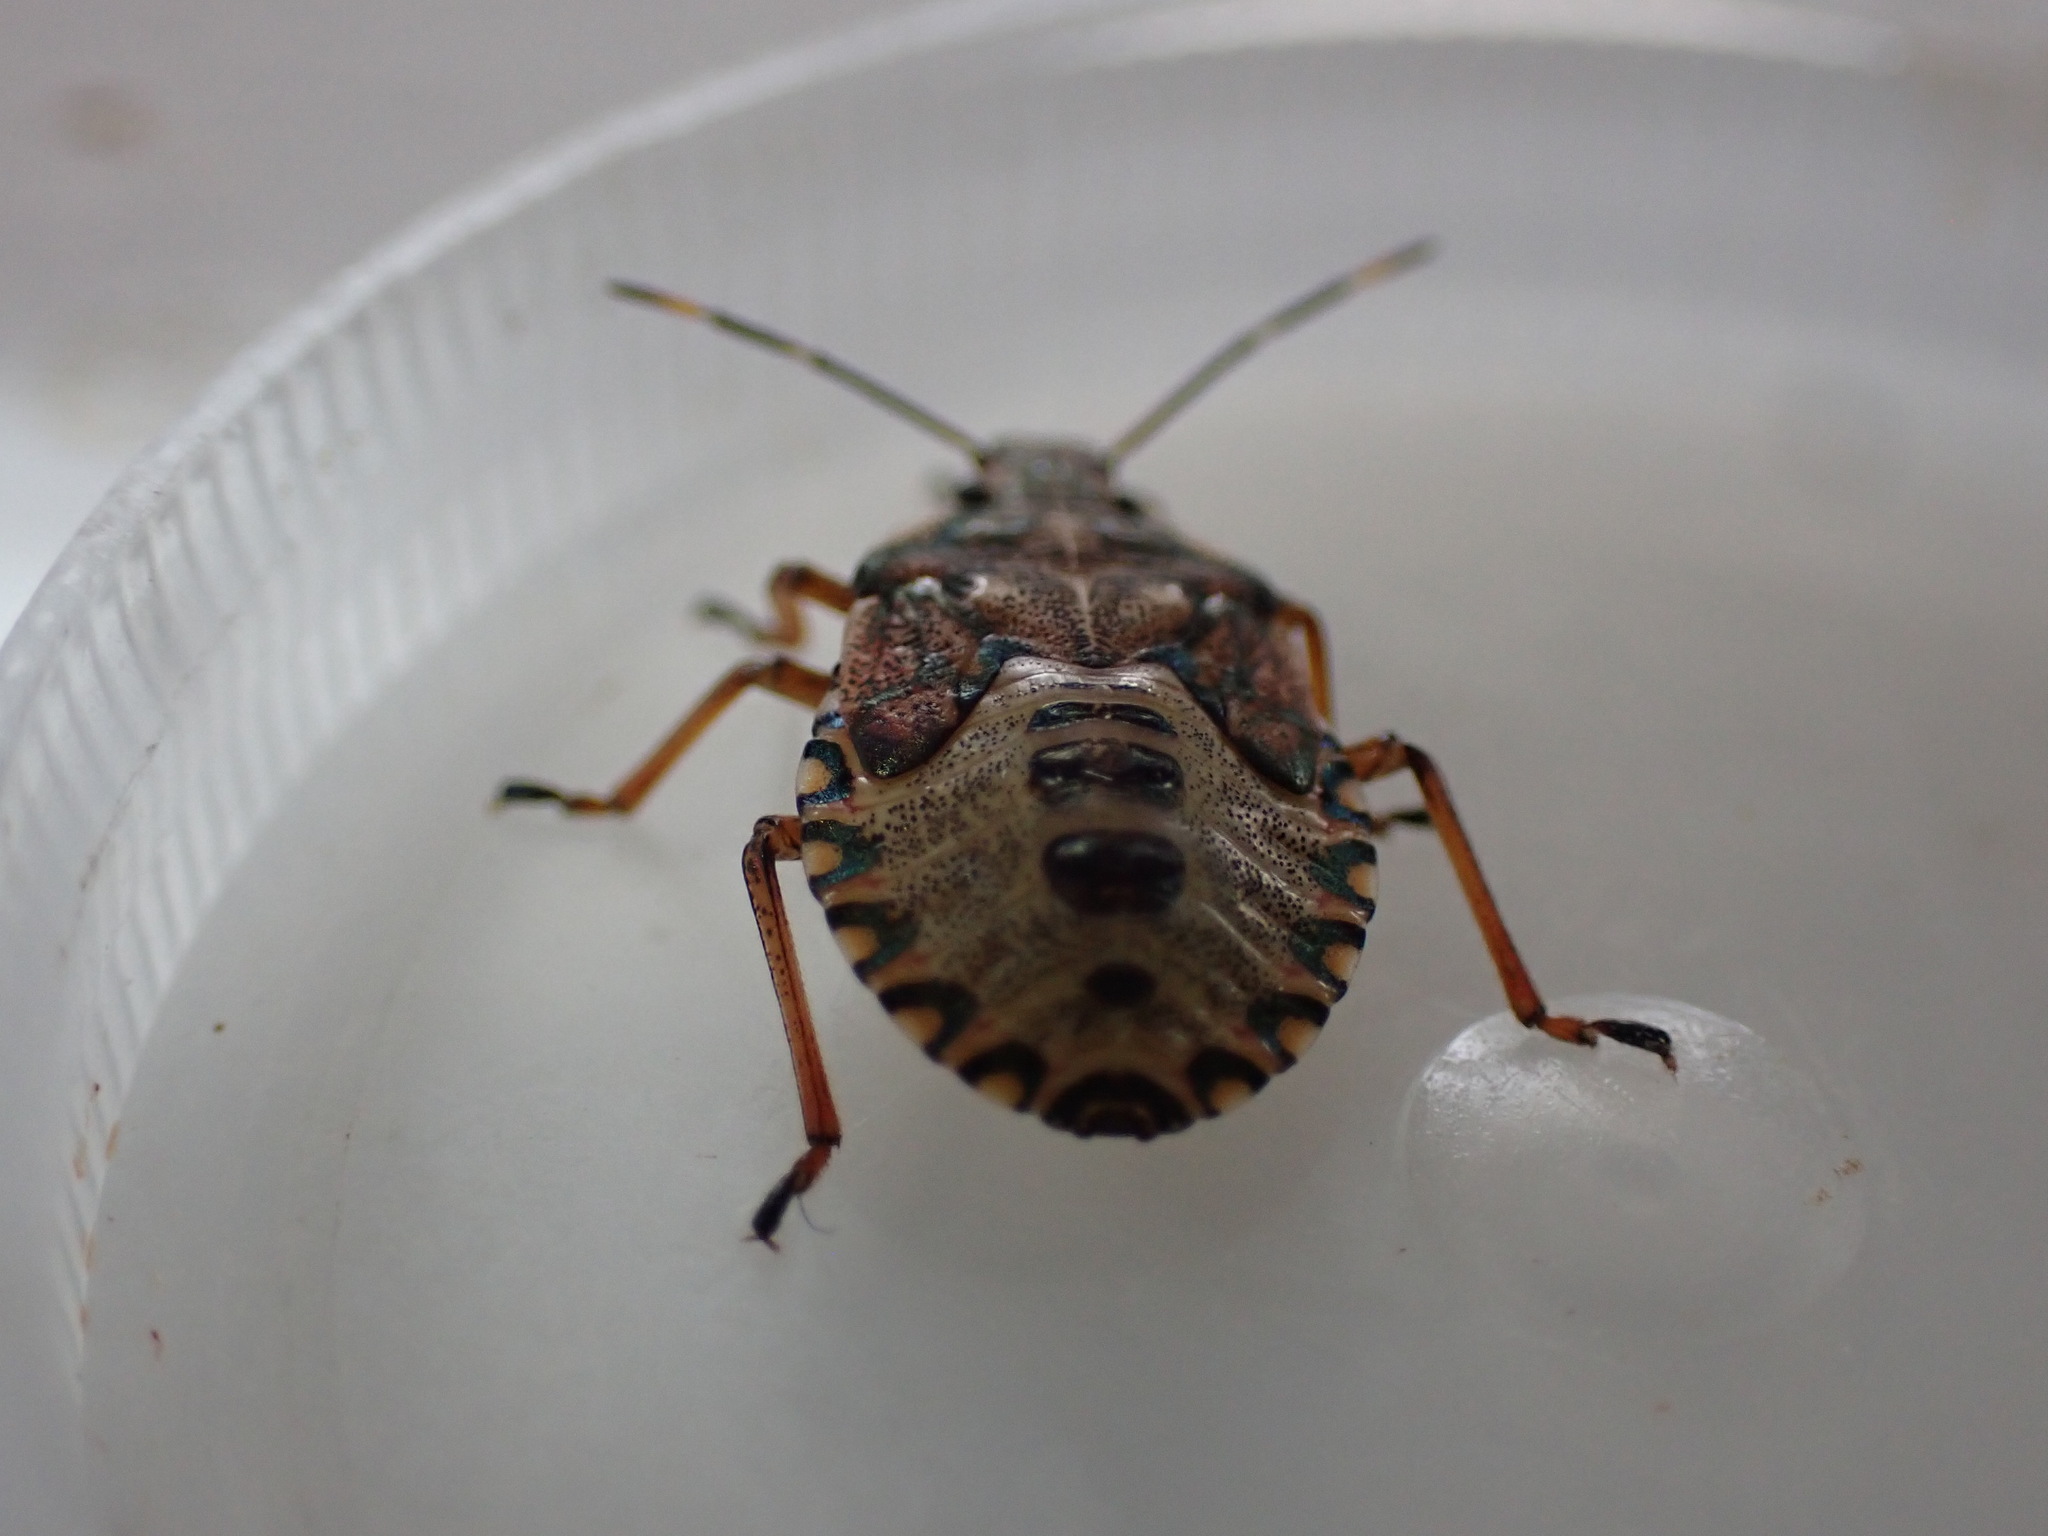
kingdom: Animalia
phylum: Arthropoda
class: Insecta
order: Hemiptera
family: Pentatomidae
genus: Arma
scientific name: Arma custos
